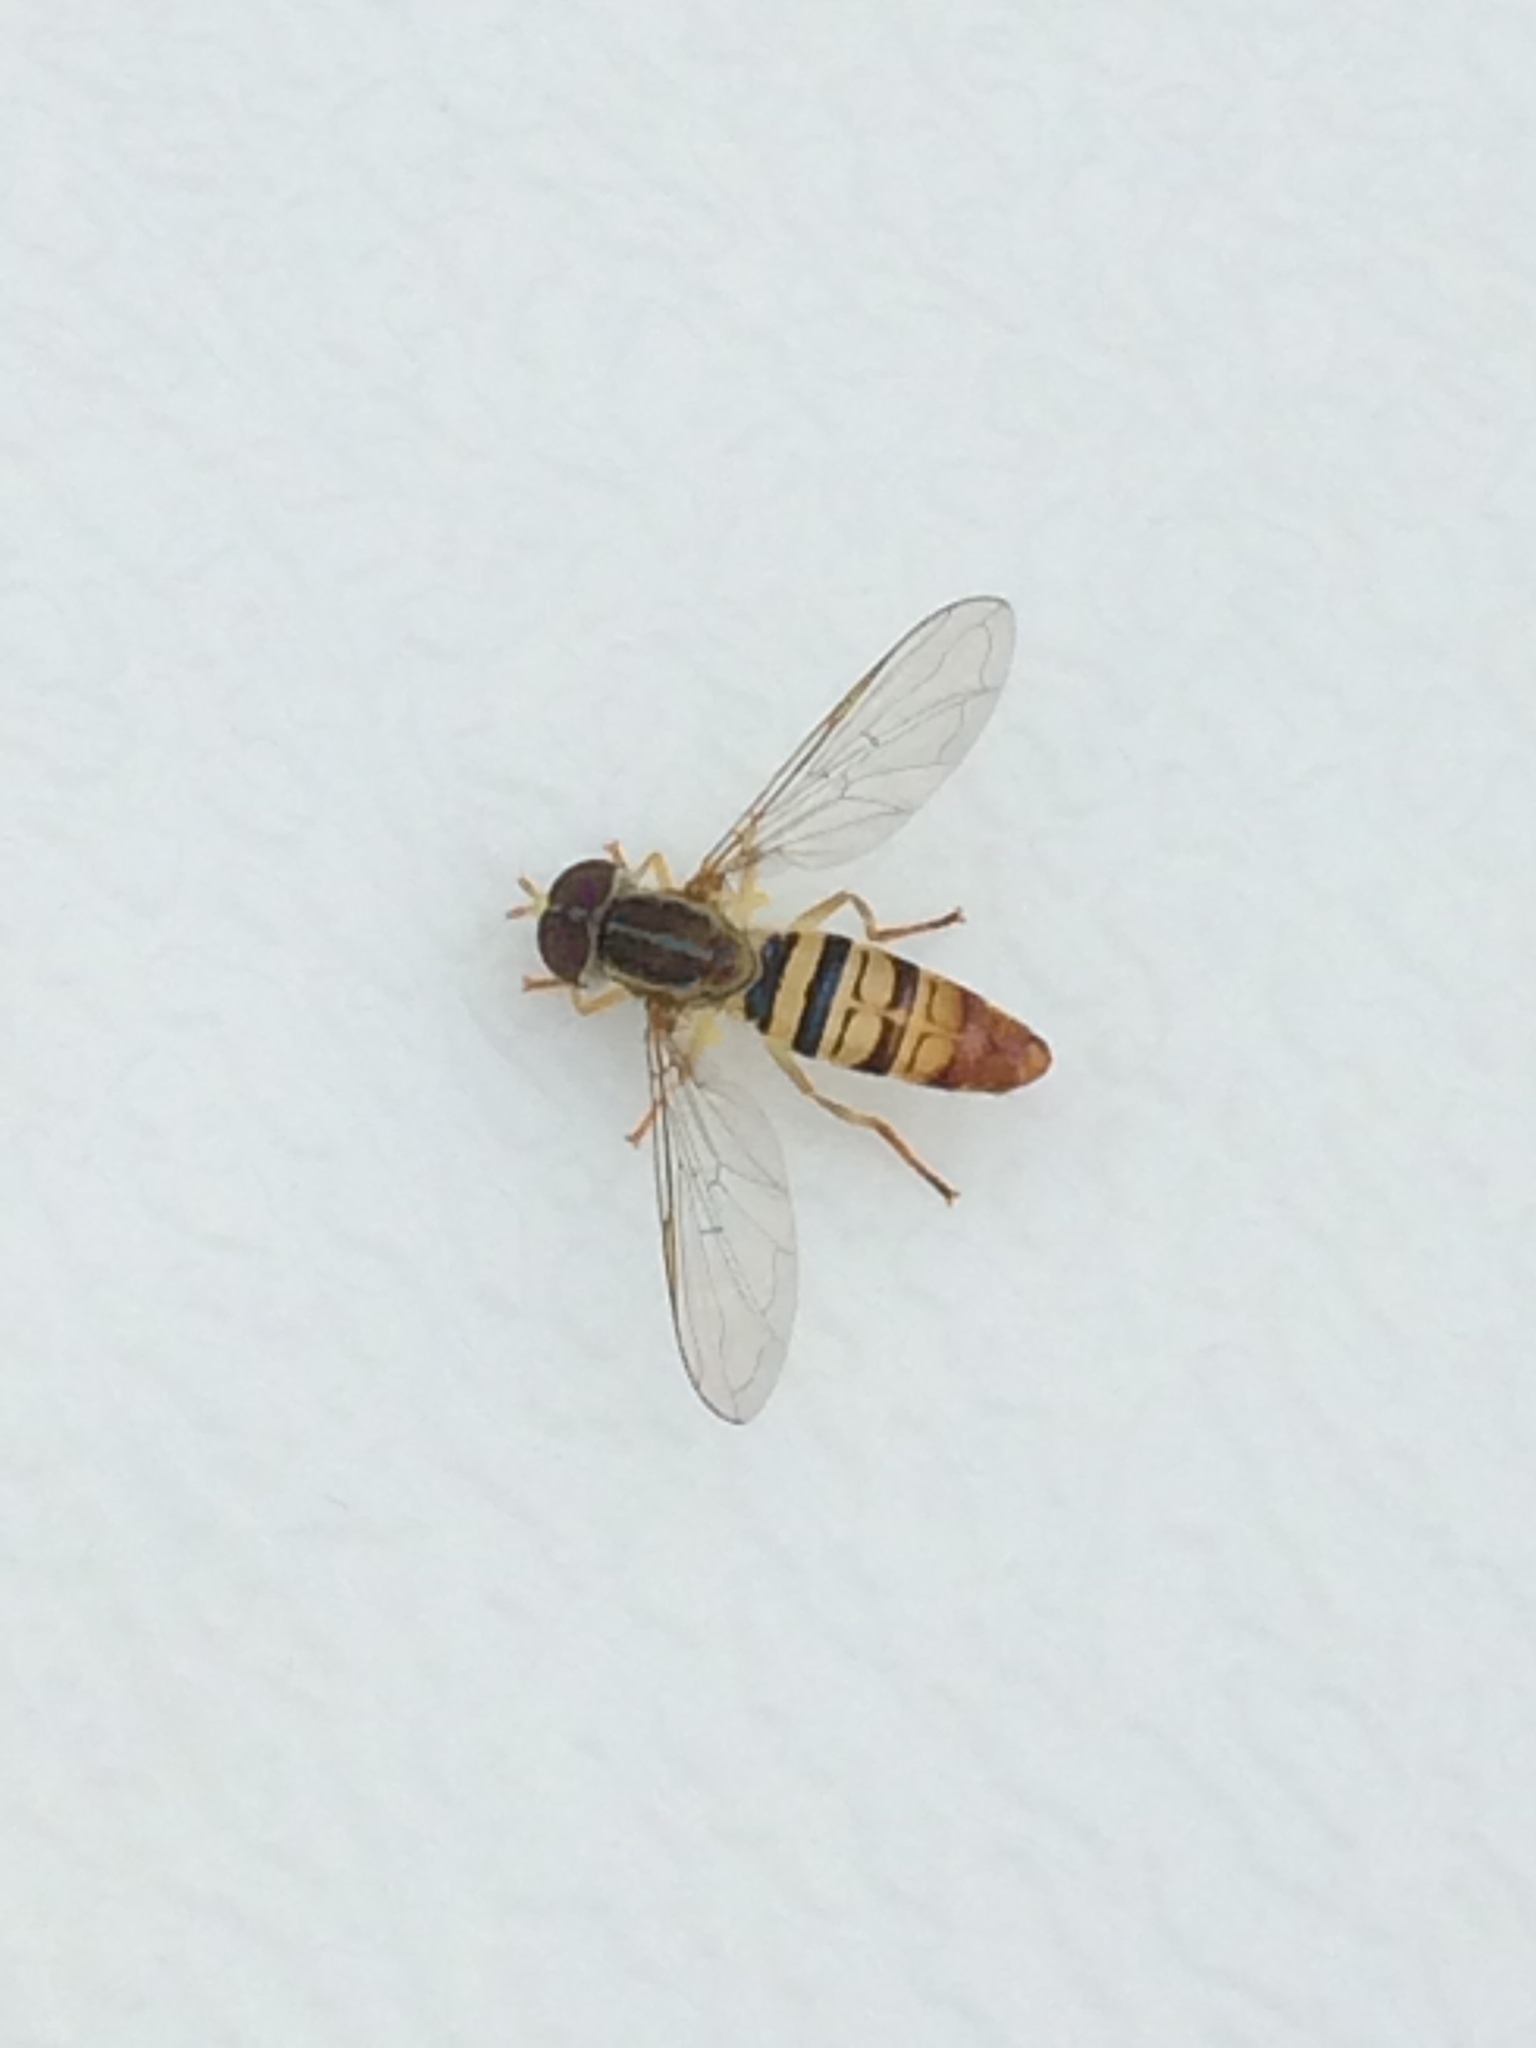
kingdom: Animalia
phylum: Arthropoda
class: Insecta
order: Diptera
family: Syrphidae
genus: Toxomerus
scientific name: Toxomerus politus
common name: Maize calligrapher
